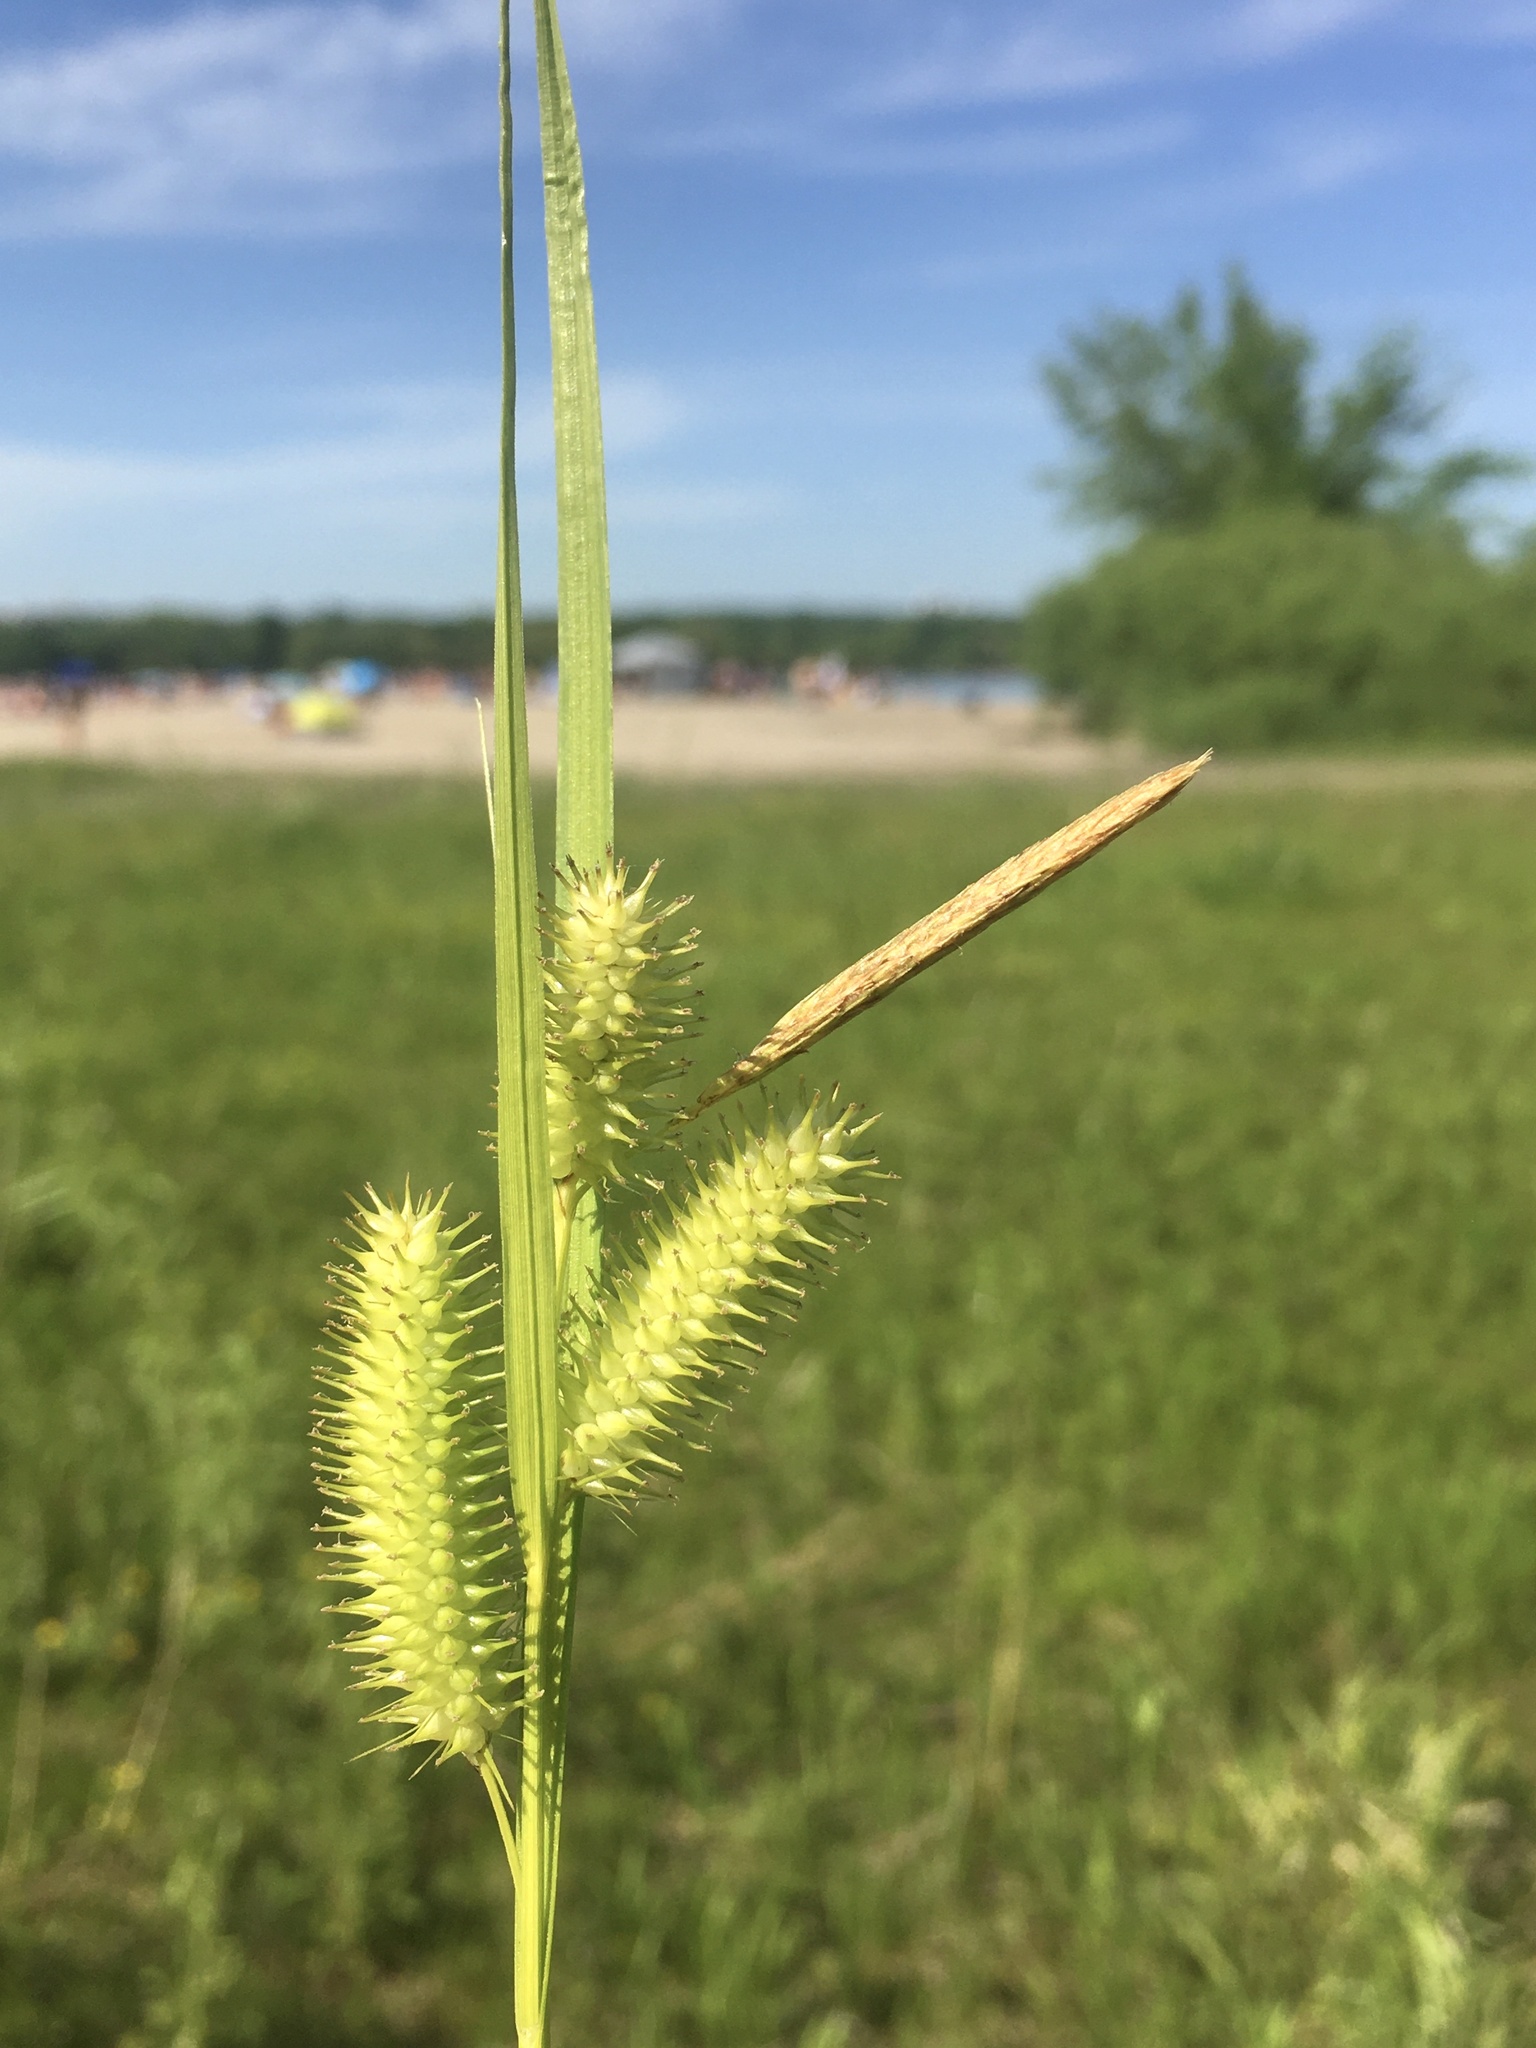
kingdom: Plantae
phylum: Tracheophyta
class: Liliopsida
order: Poales
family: Cyperaceae
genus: Carex
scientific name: Carex hystericina
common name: Bottlebrush sedge
